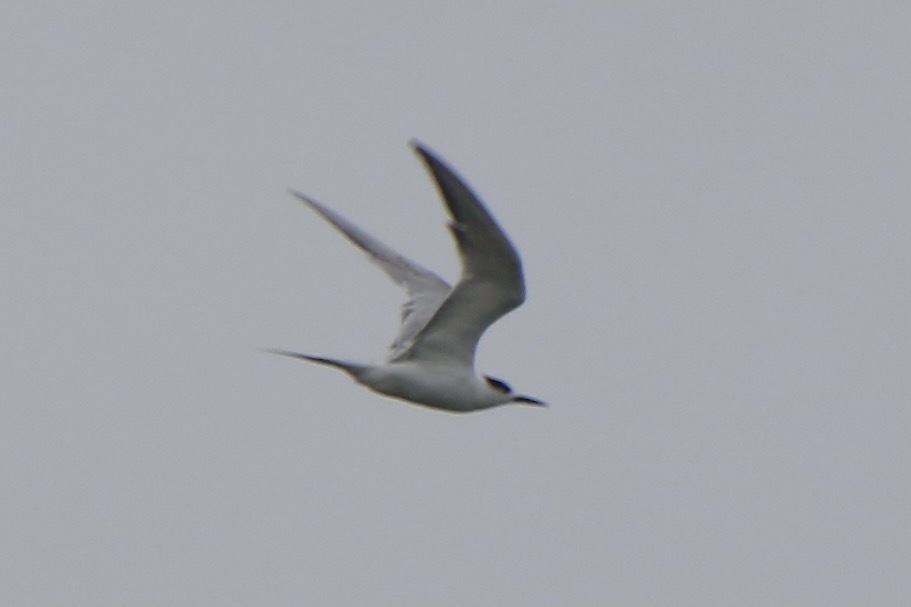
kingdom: Animalia
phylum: Chordata
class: Aves
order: Charadriiformes
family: Laridae
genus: Sterna
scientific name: Sterna hirundo
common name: Common tern
